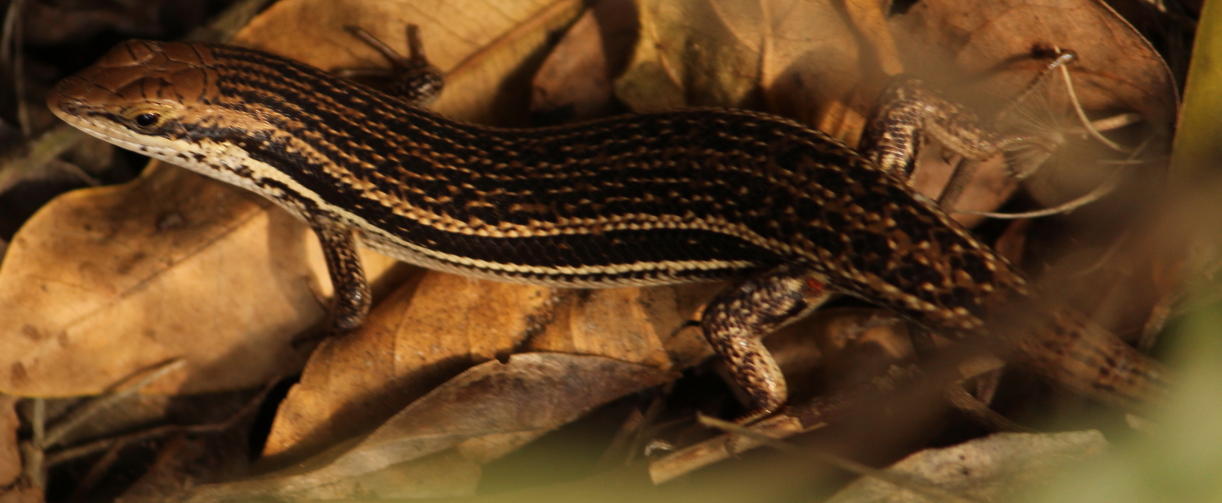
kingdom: Animalia
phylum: Chordata
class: Squamata
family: Scincidae
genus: Trachylepis
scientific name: Trachylepis depressa
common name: Eastern coastal skink
